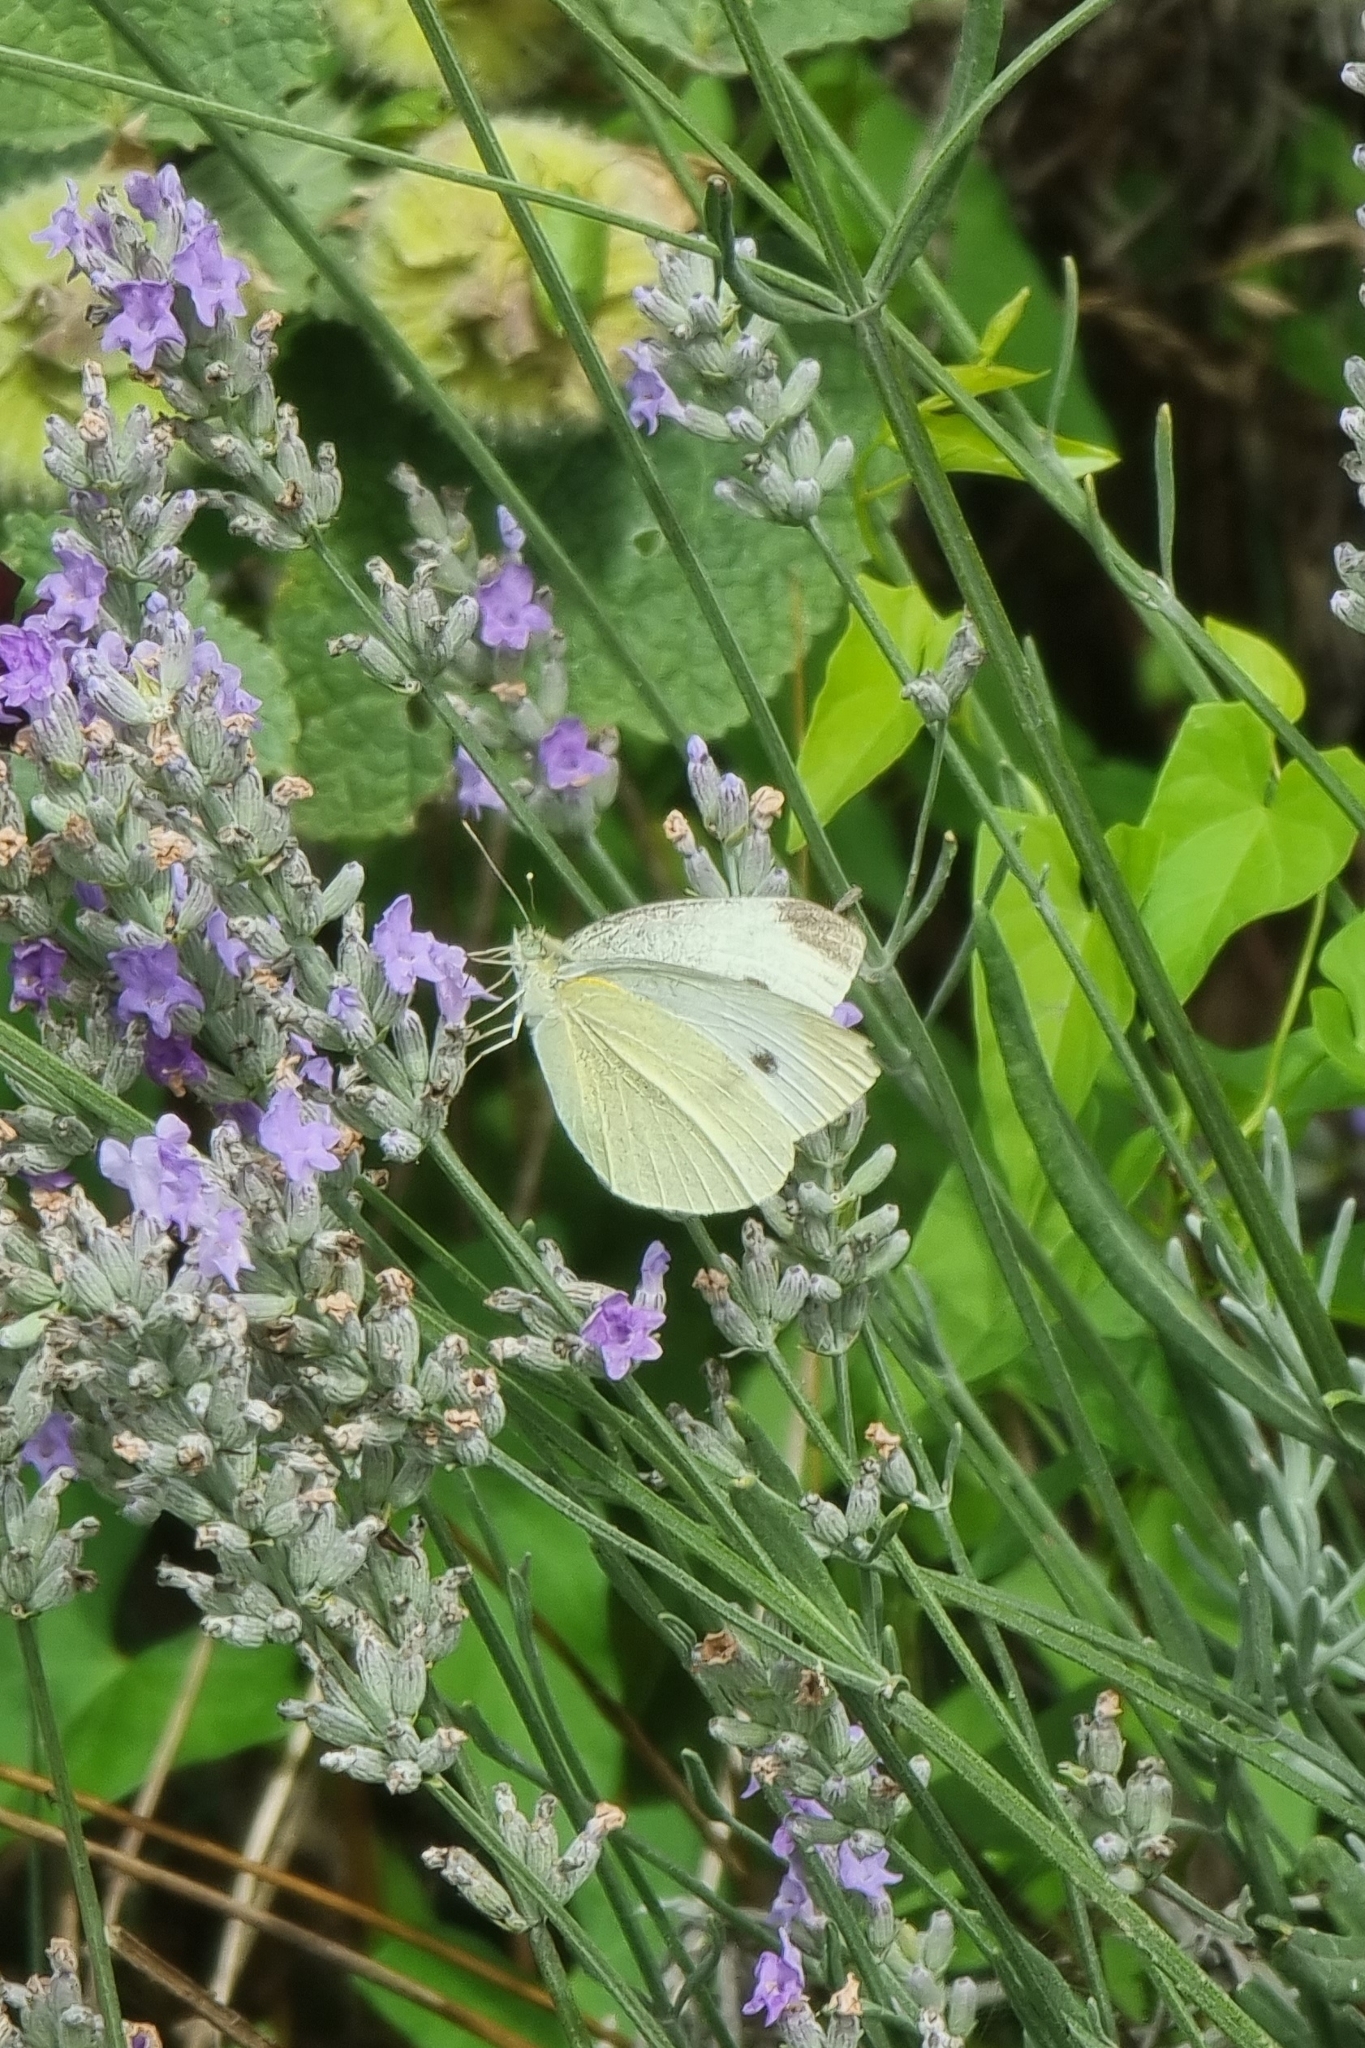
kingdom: Animalia
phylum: Arthropoda
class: Insecta
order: Lepidoptera
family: Pieridae
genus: Pieris
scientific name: Pieris rapae
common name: Small white
